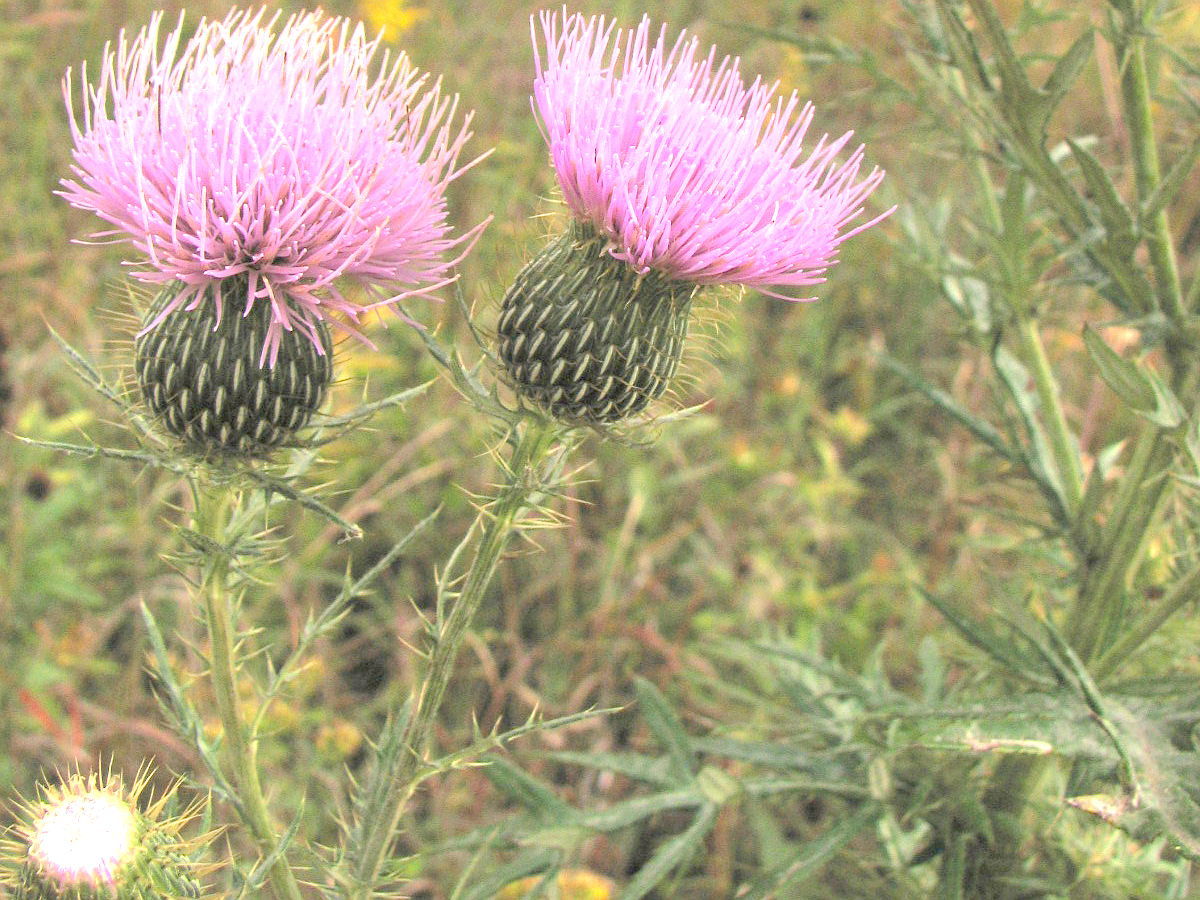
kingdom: Plantae
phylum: Tracheophyta
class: Magnoliopsida
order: Asterales
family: Asteraceae
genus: Cirsium
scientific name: Cirsium discolor
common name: Field thistle
